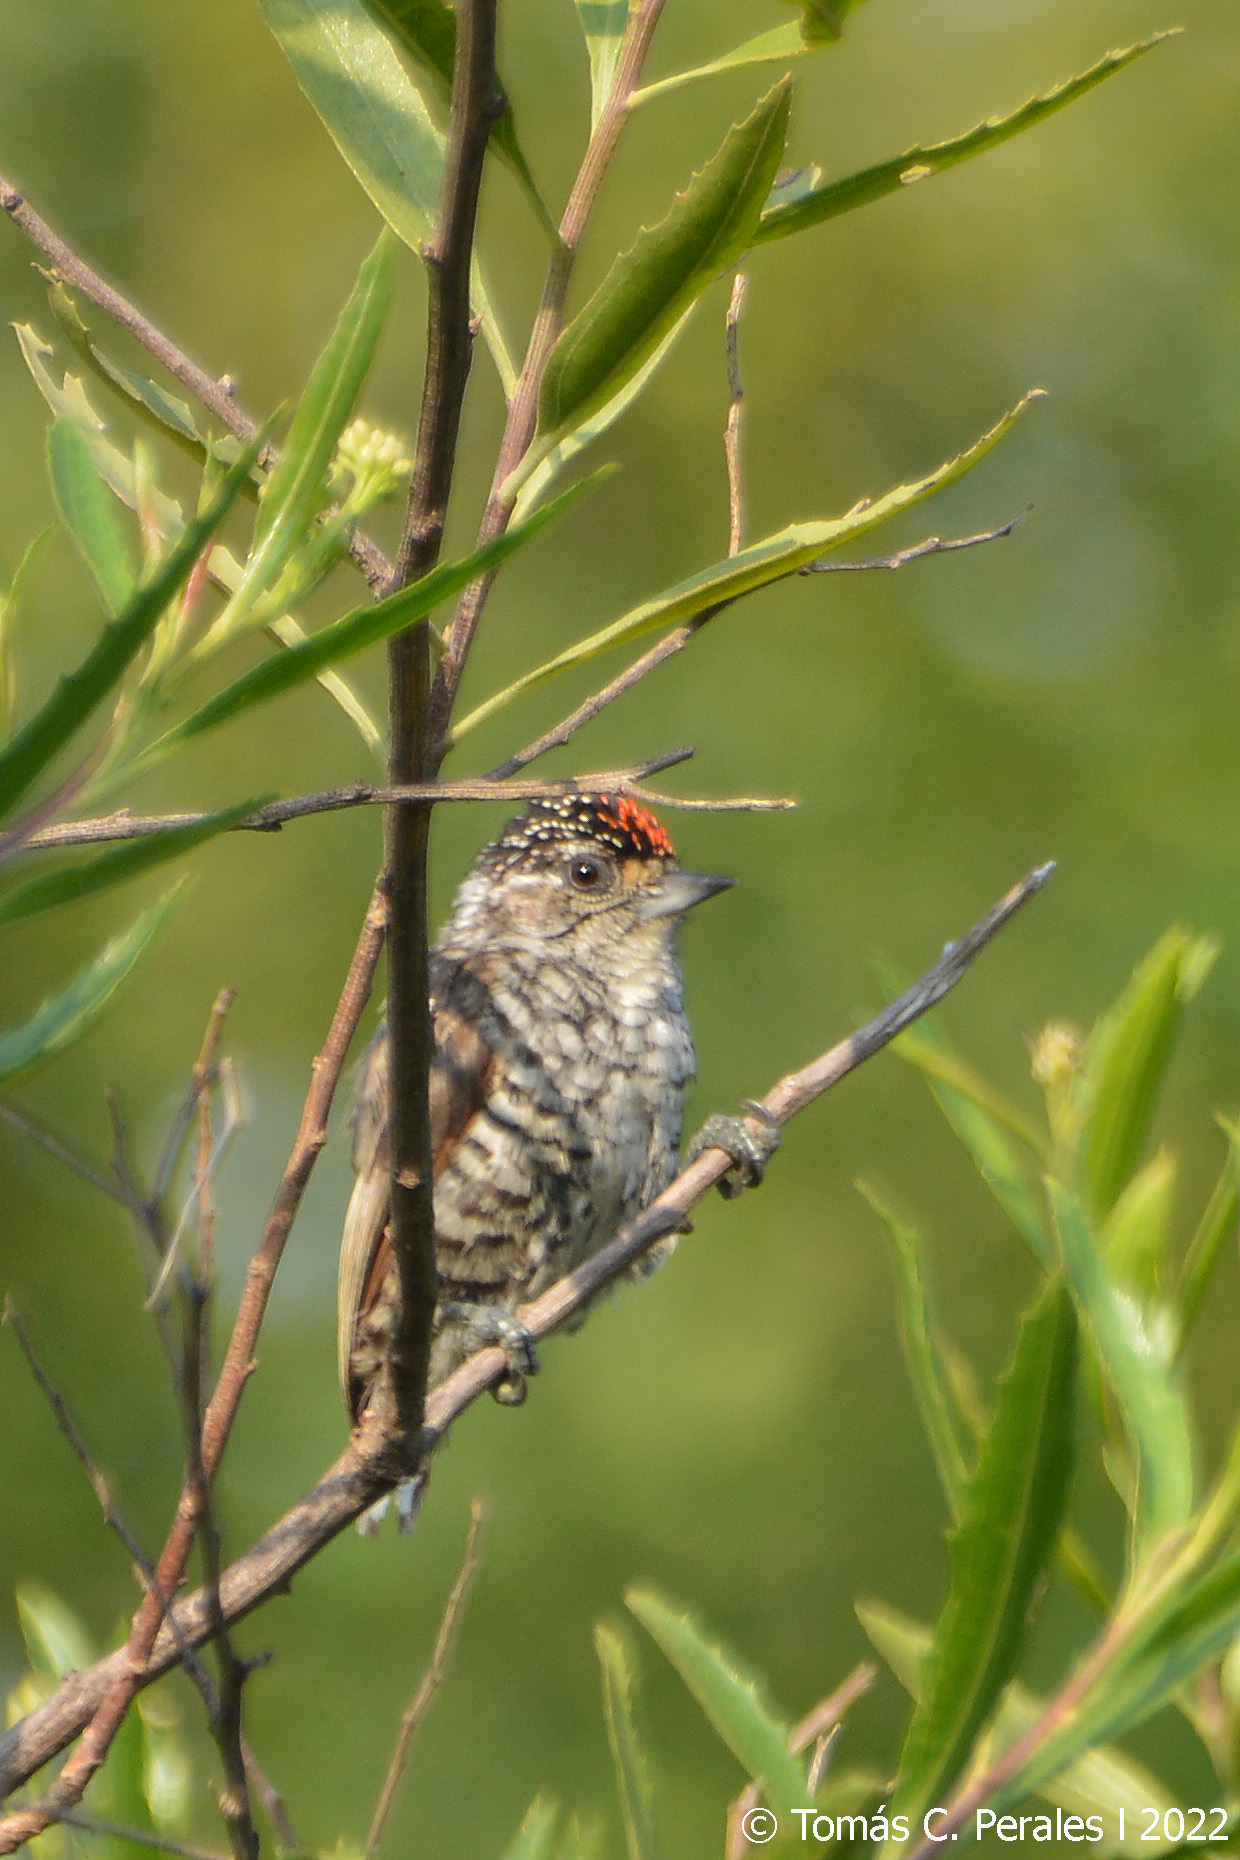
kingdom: Animalia
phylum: Chordata
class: Aves
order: Piciformes
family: Picidae
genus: Picumnus
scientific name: Picumnus cirratus
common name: White-barred piculet
